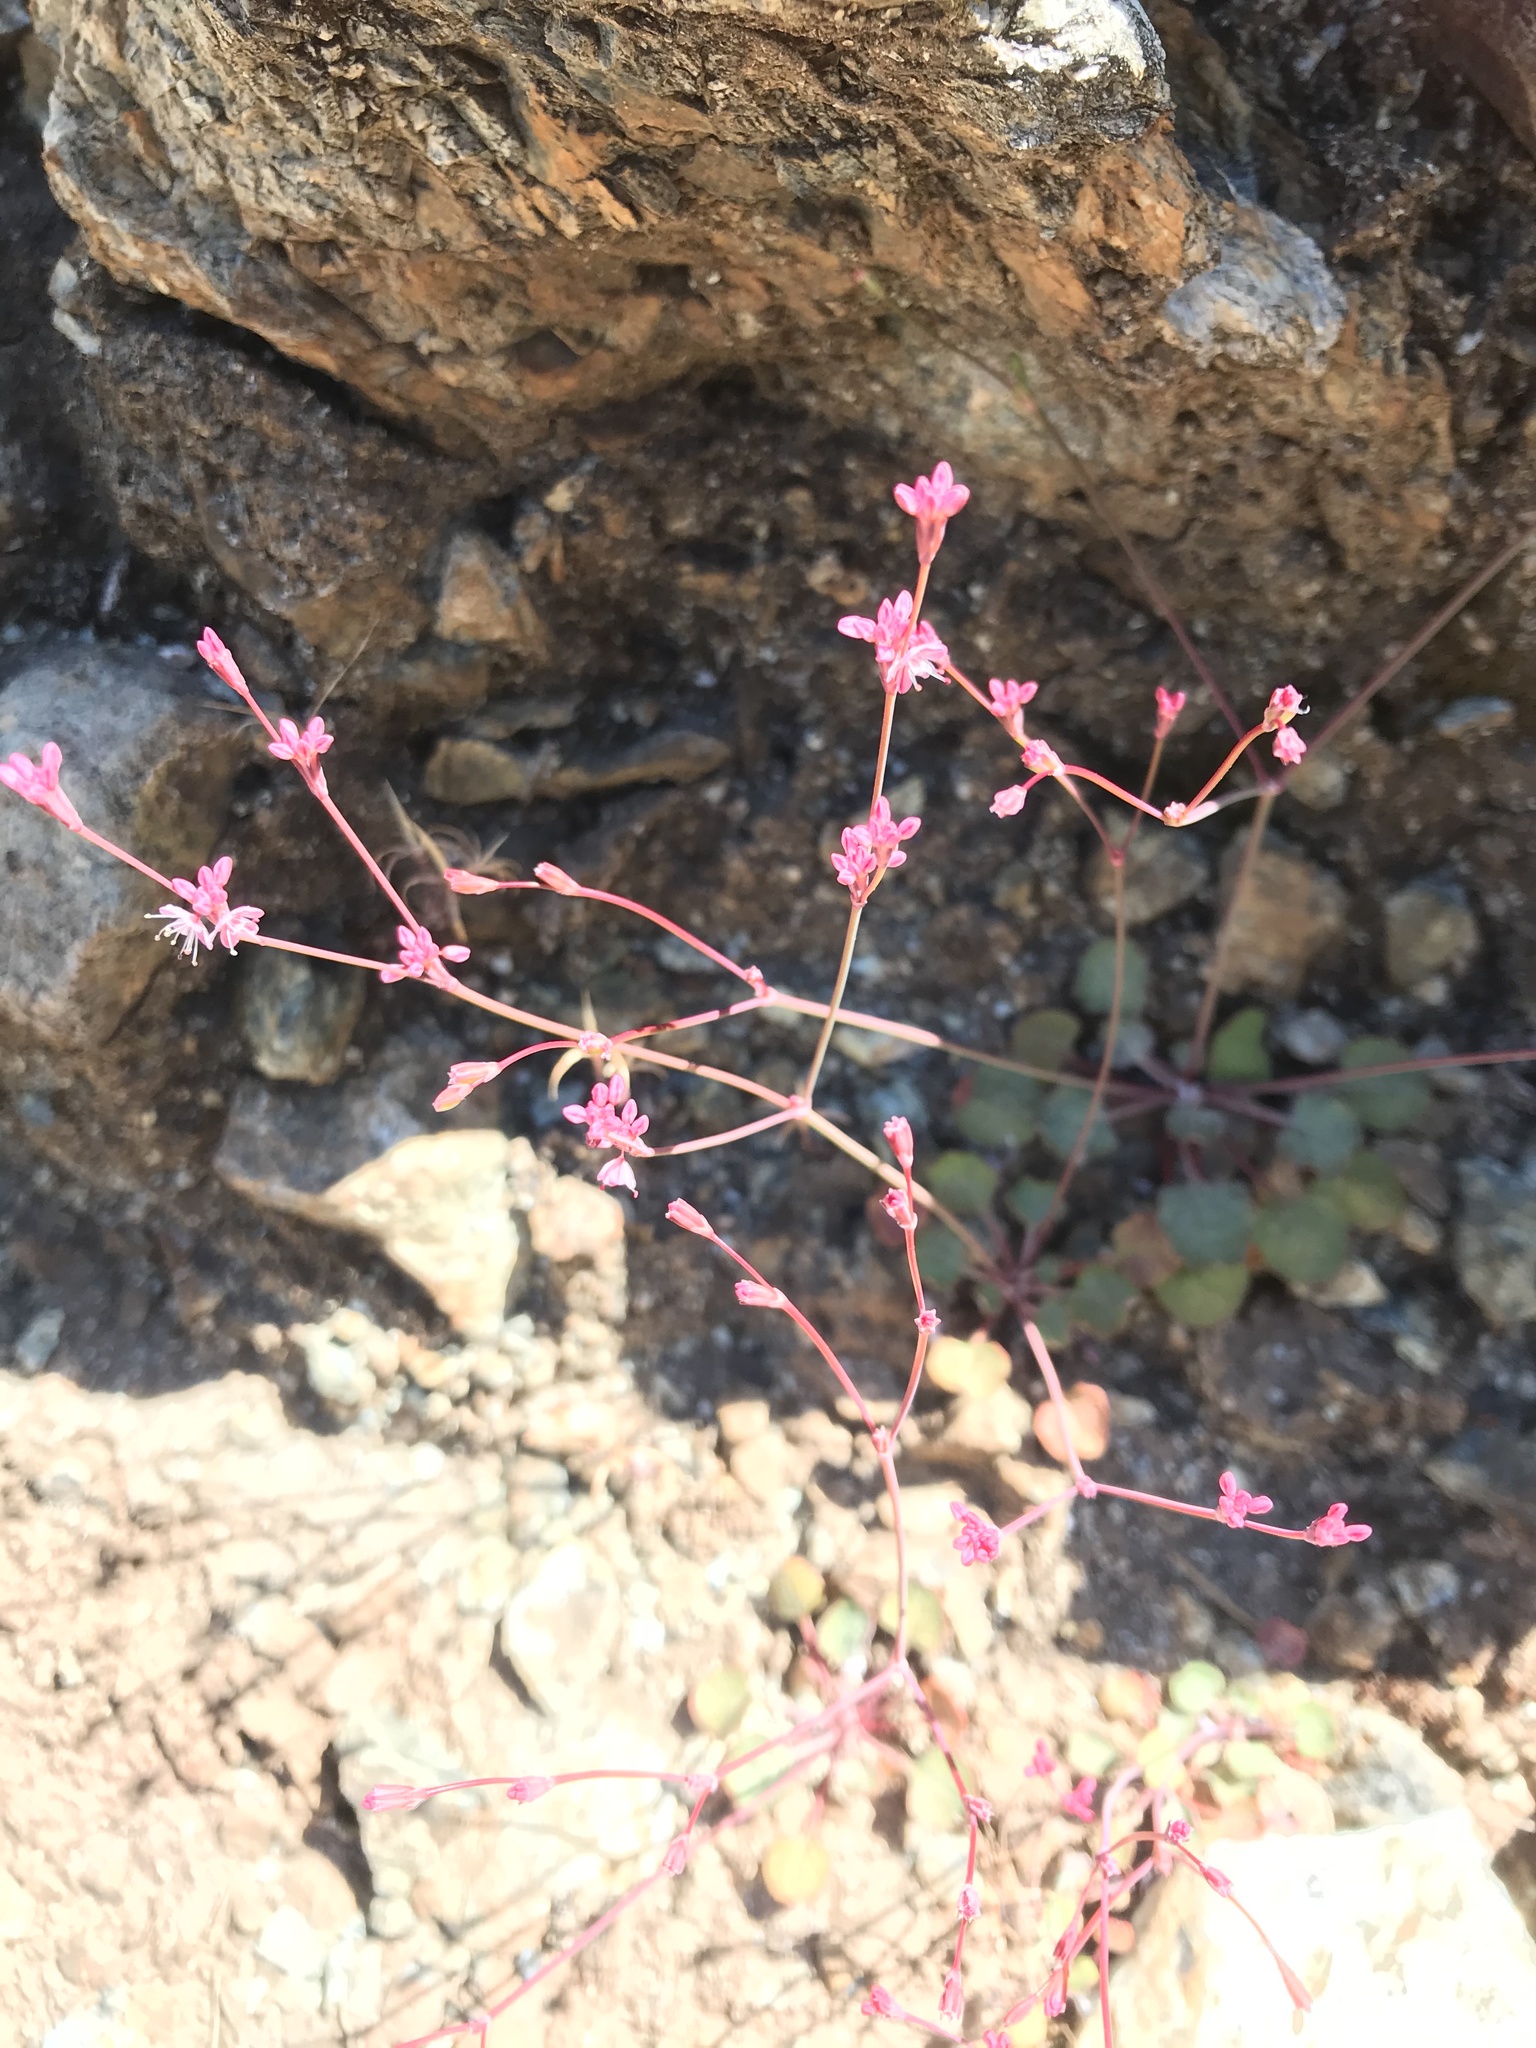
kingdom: Plantae
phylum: Tracheophyta
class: Magnoliopsida
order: Caryophyllales
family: Polygonaceae
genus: Eriogonum
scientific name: Eriogonum luteolum
